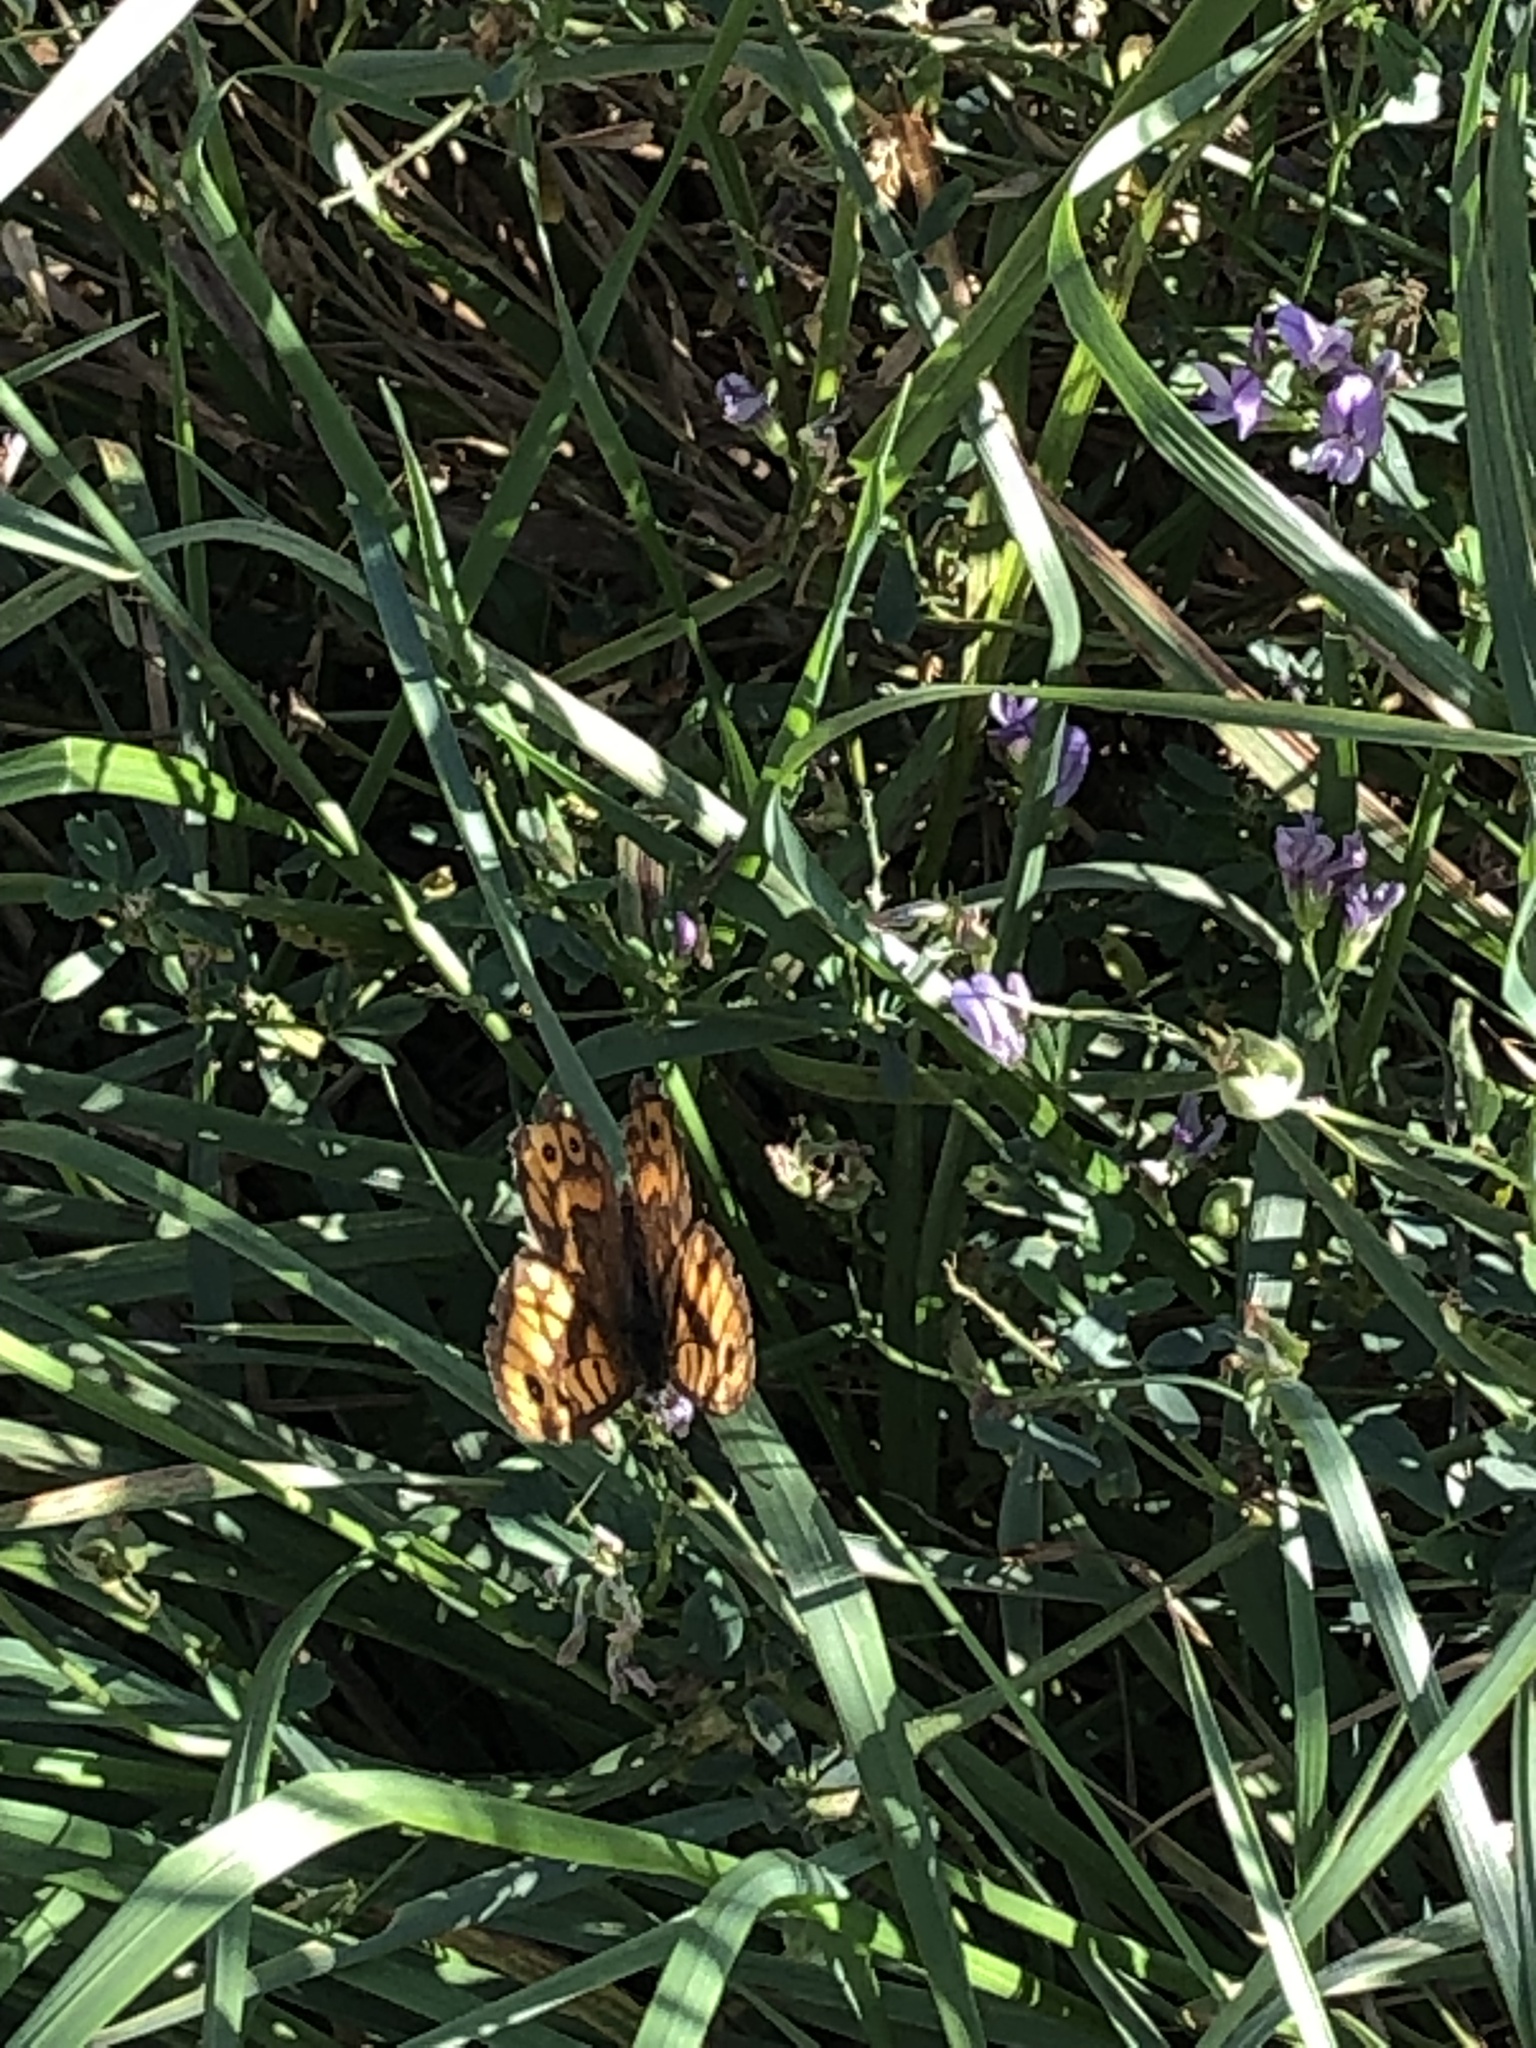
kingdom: Animalia
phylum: Arthropoda
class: Insecta
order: Lepidoptera
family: Nymphalidae
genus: Pararge
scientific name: Pararge Lasiommata megera
